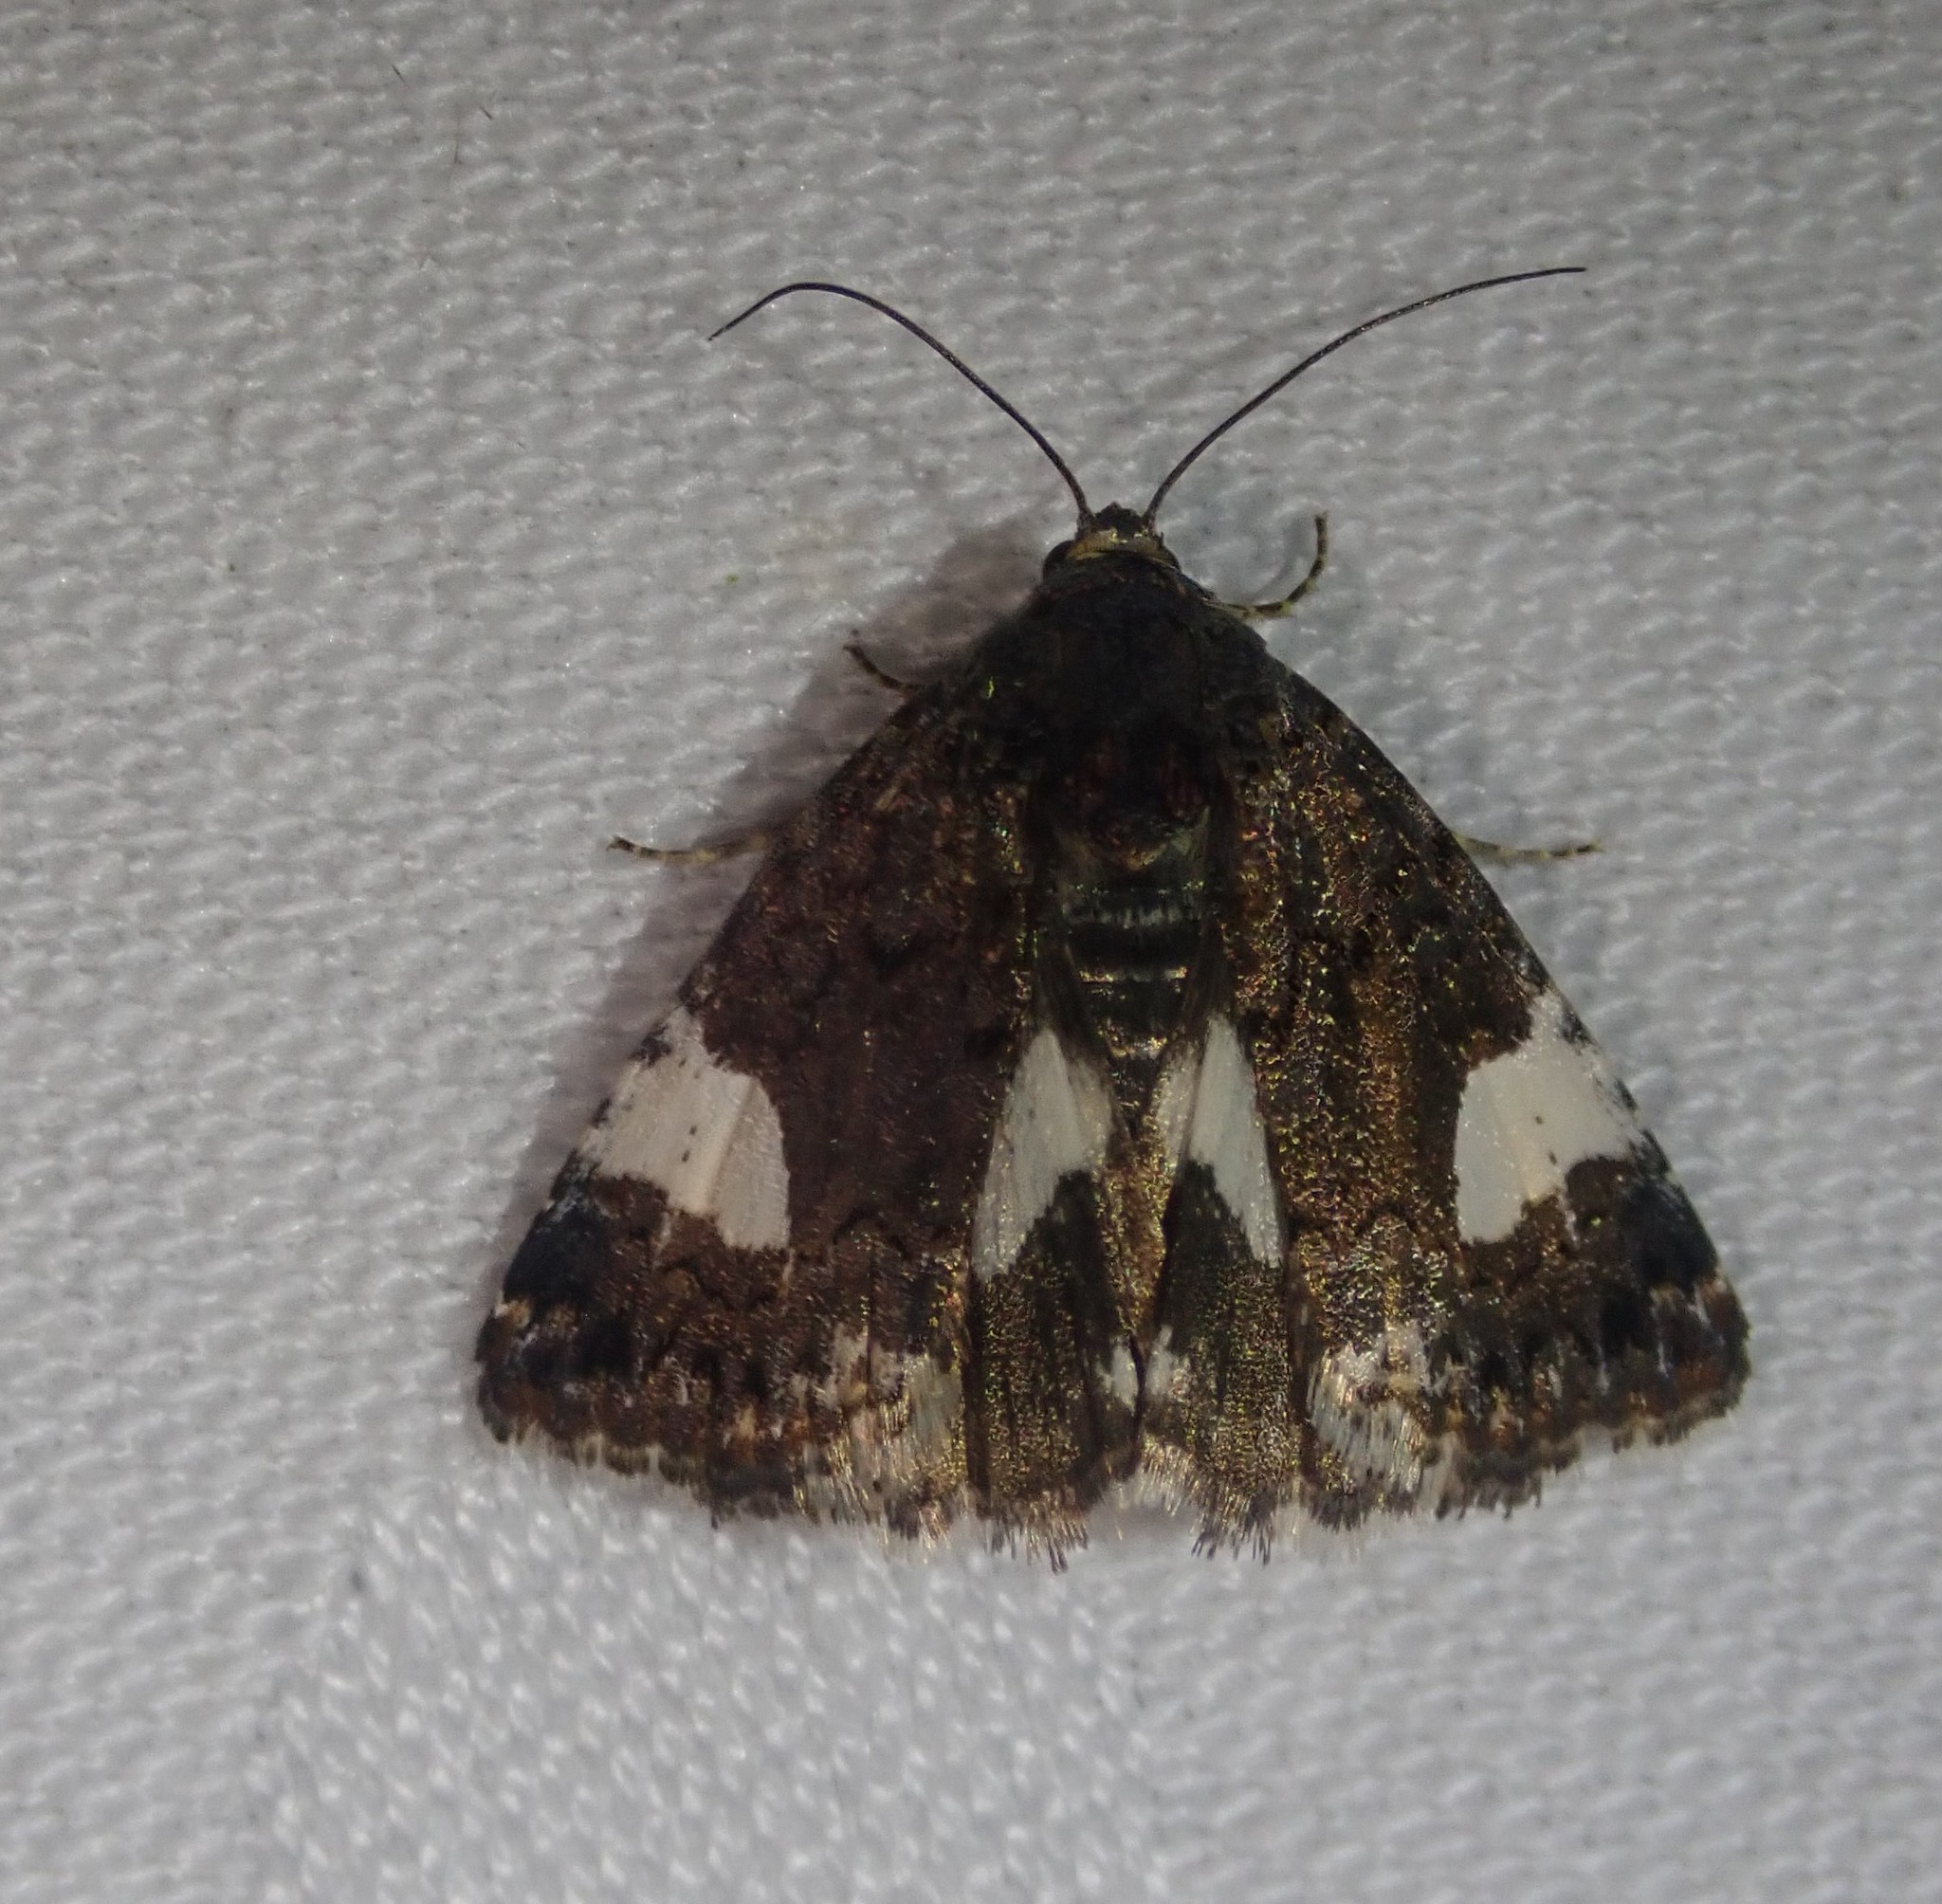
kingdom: Animalia
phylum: Arthropoda
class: Insecta
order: Lepidoptera
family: Erebidae
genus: Tyta
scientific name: Tyta luctuosa
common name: Four-spotted
